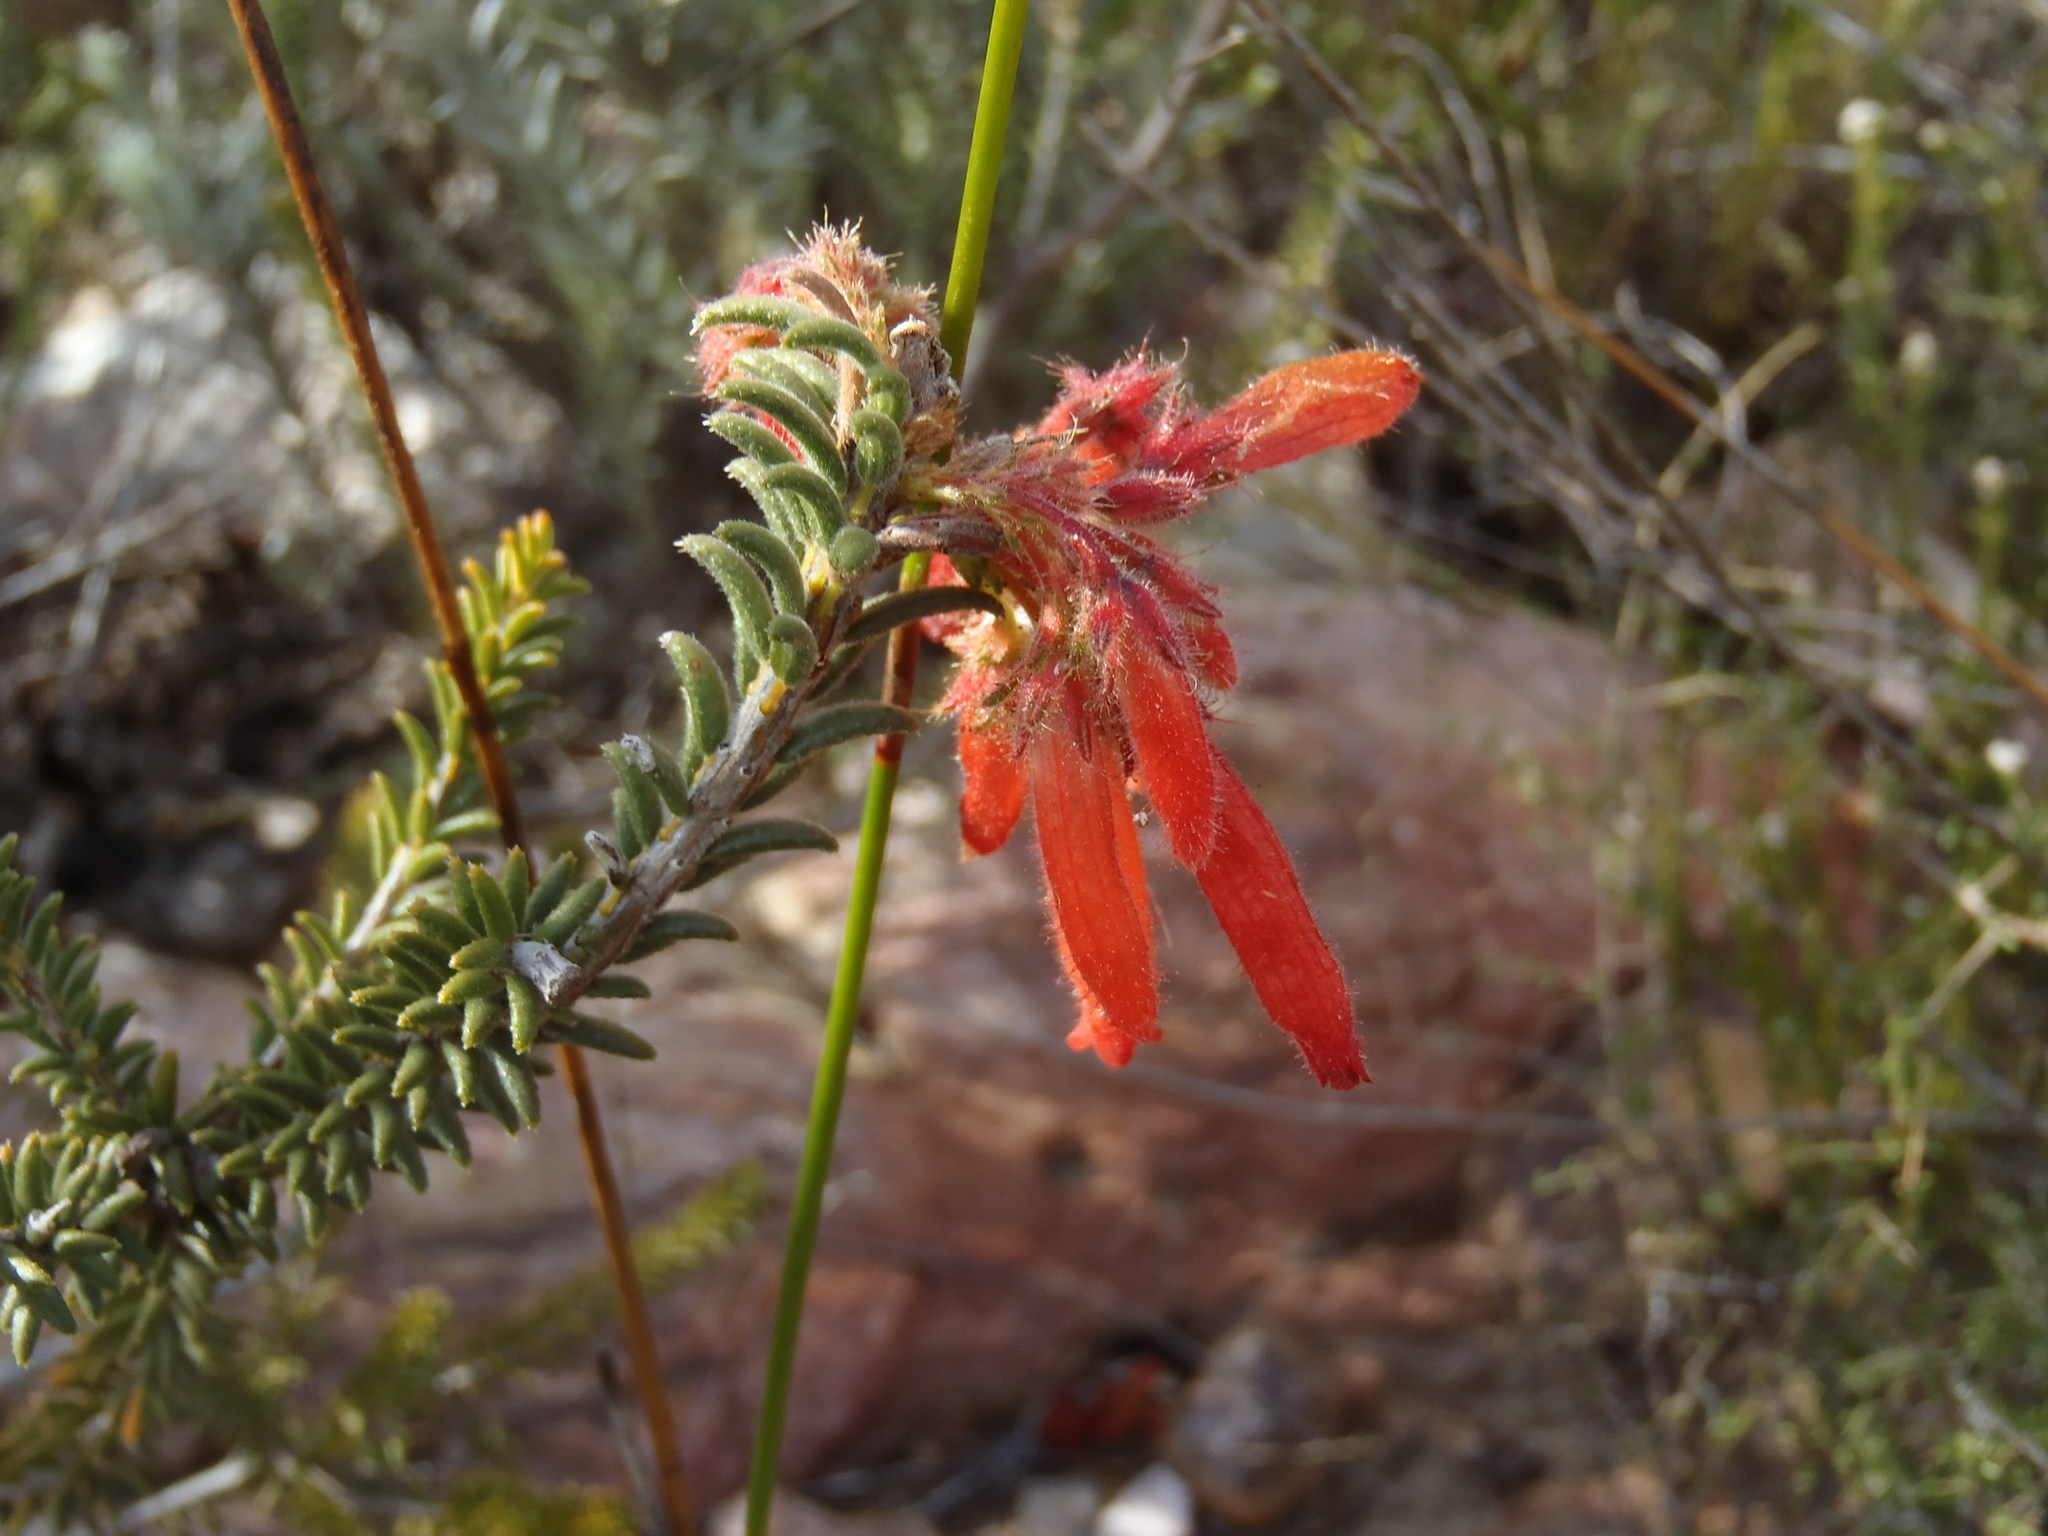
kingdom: Plantae
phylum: Tracheophyta
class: Magnoliopsida
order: Ericales
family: Ericaceae
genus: Erica
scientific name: Erica cerinthoides
